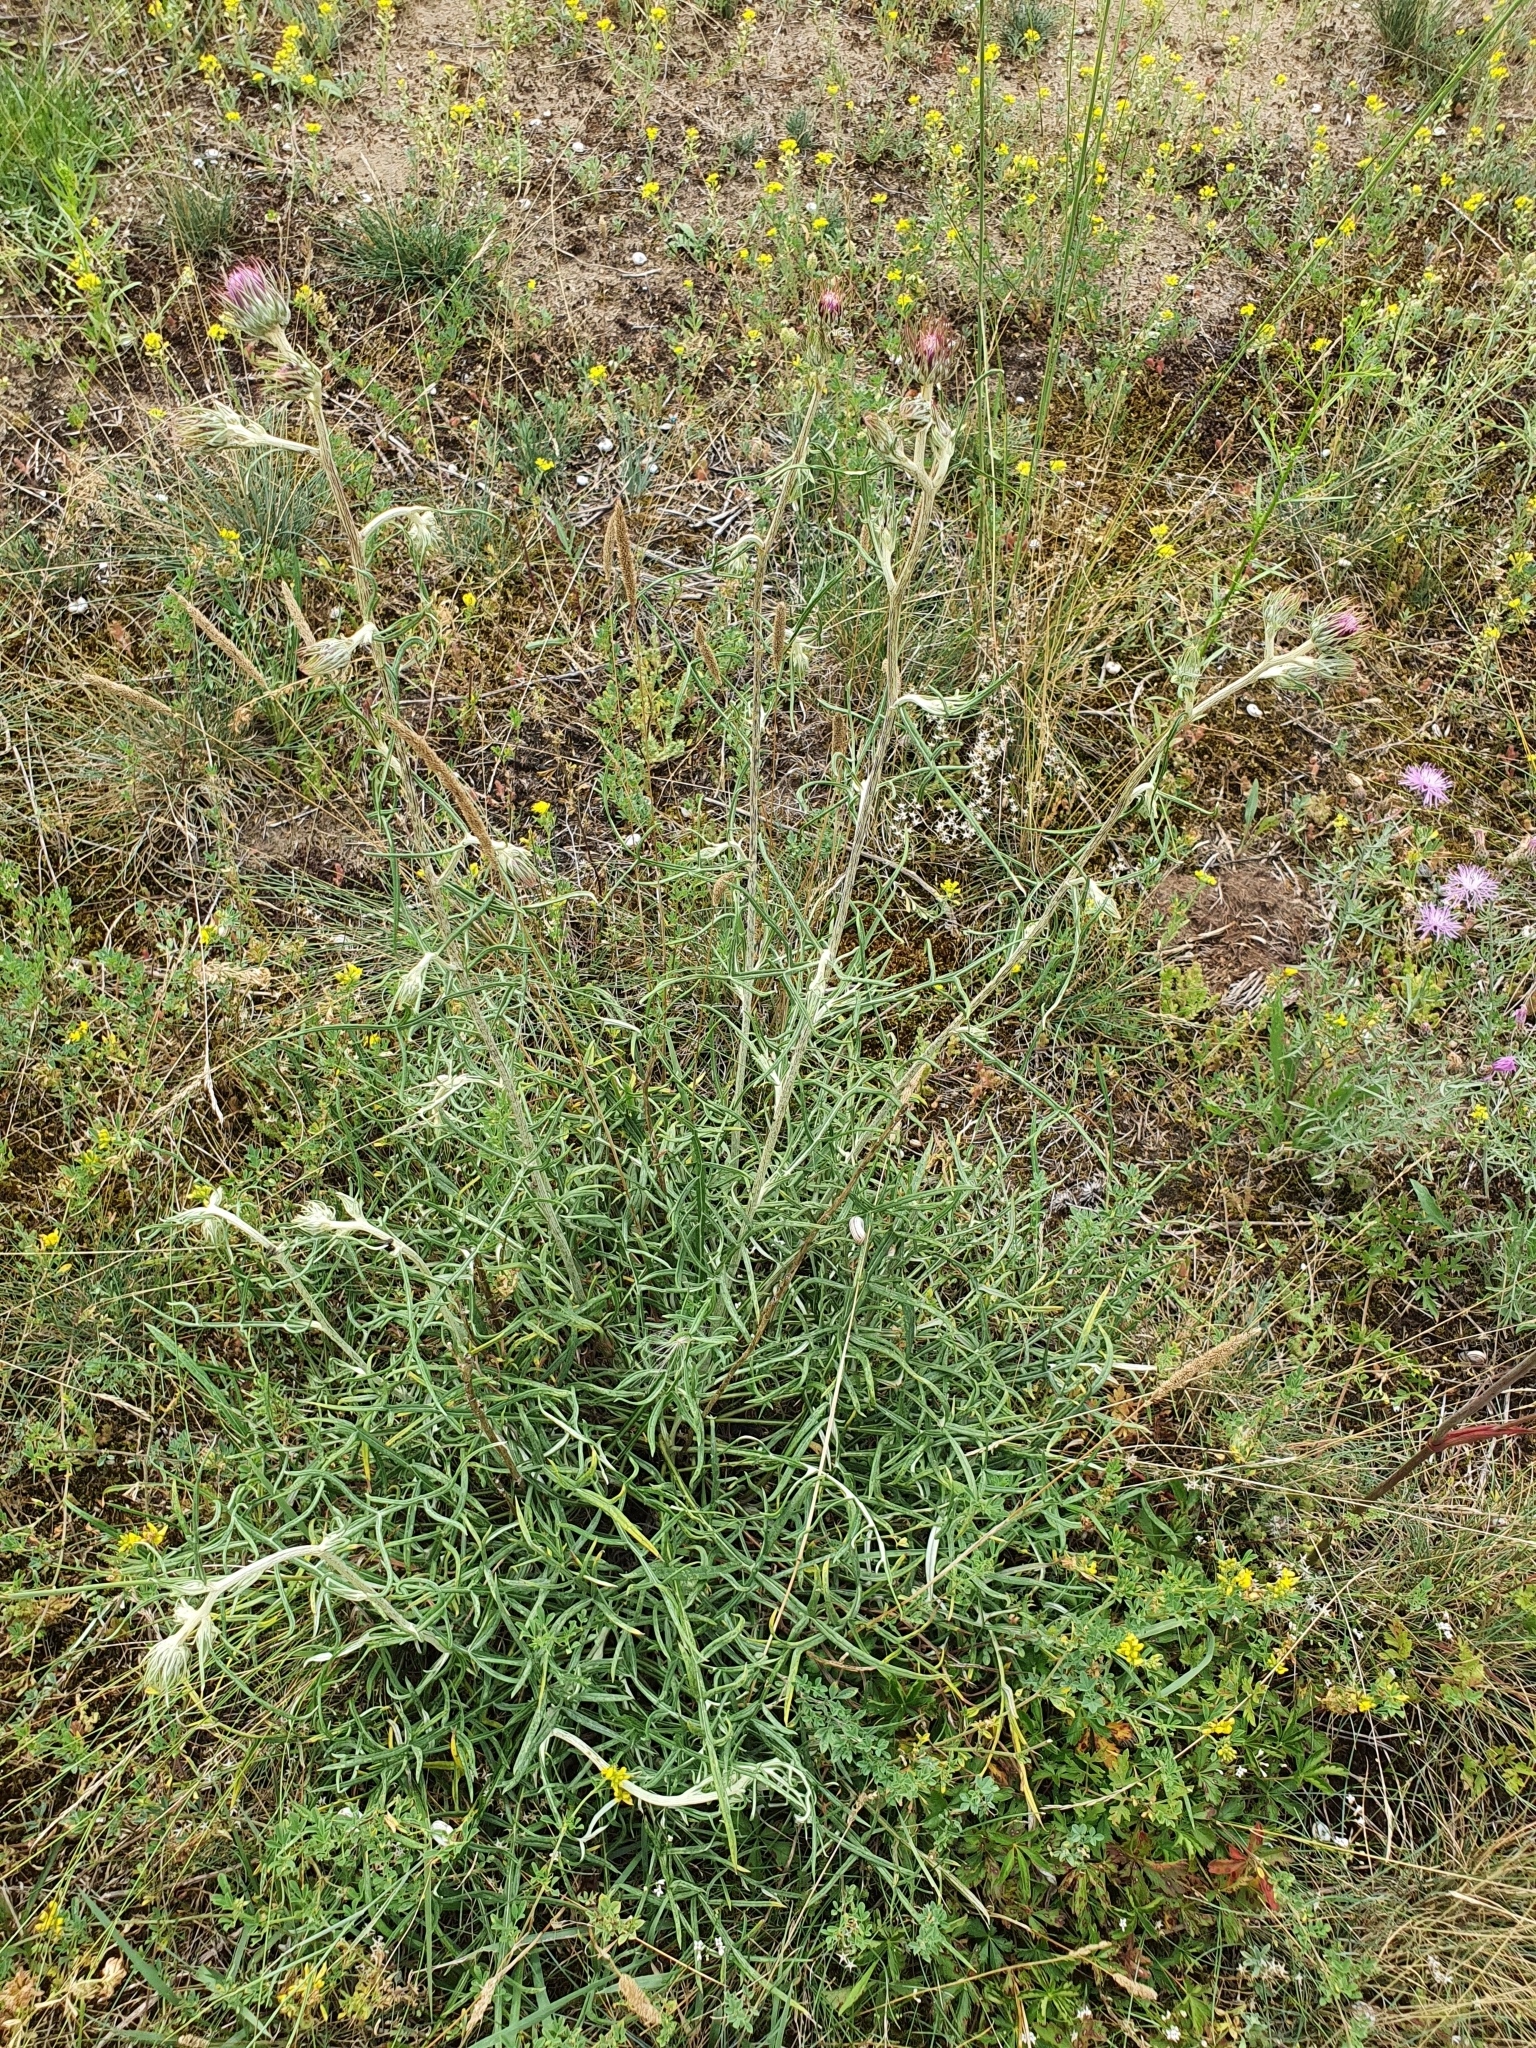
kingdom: Plantae
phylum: Tracheophyta
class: Magnoliopsida
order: Asterales
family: Asteraceae
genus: Jurinea
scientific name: Jurinea cyanoides
